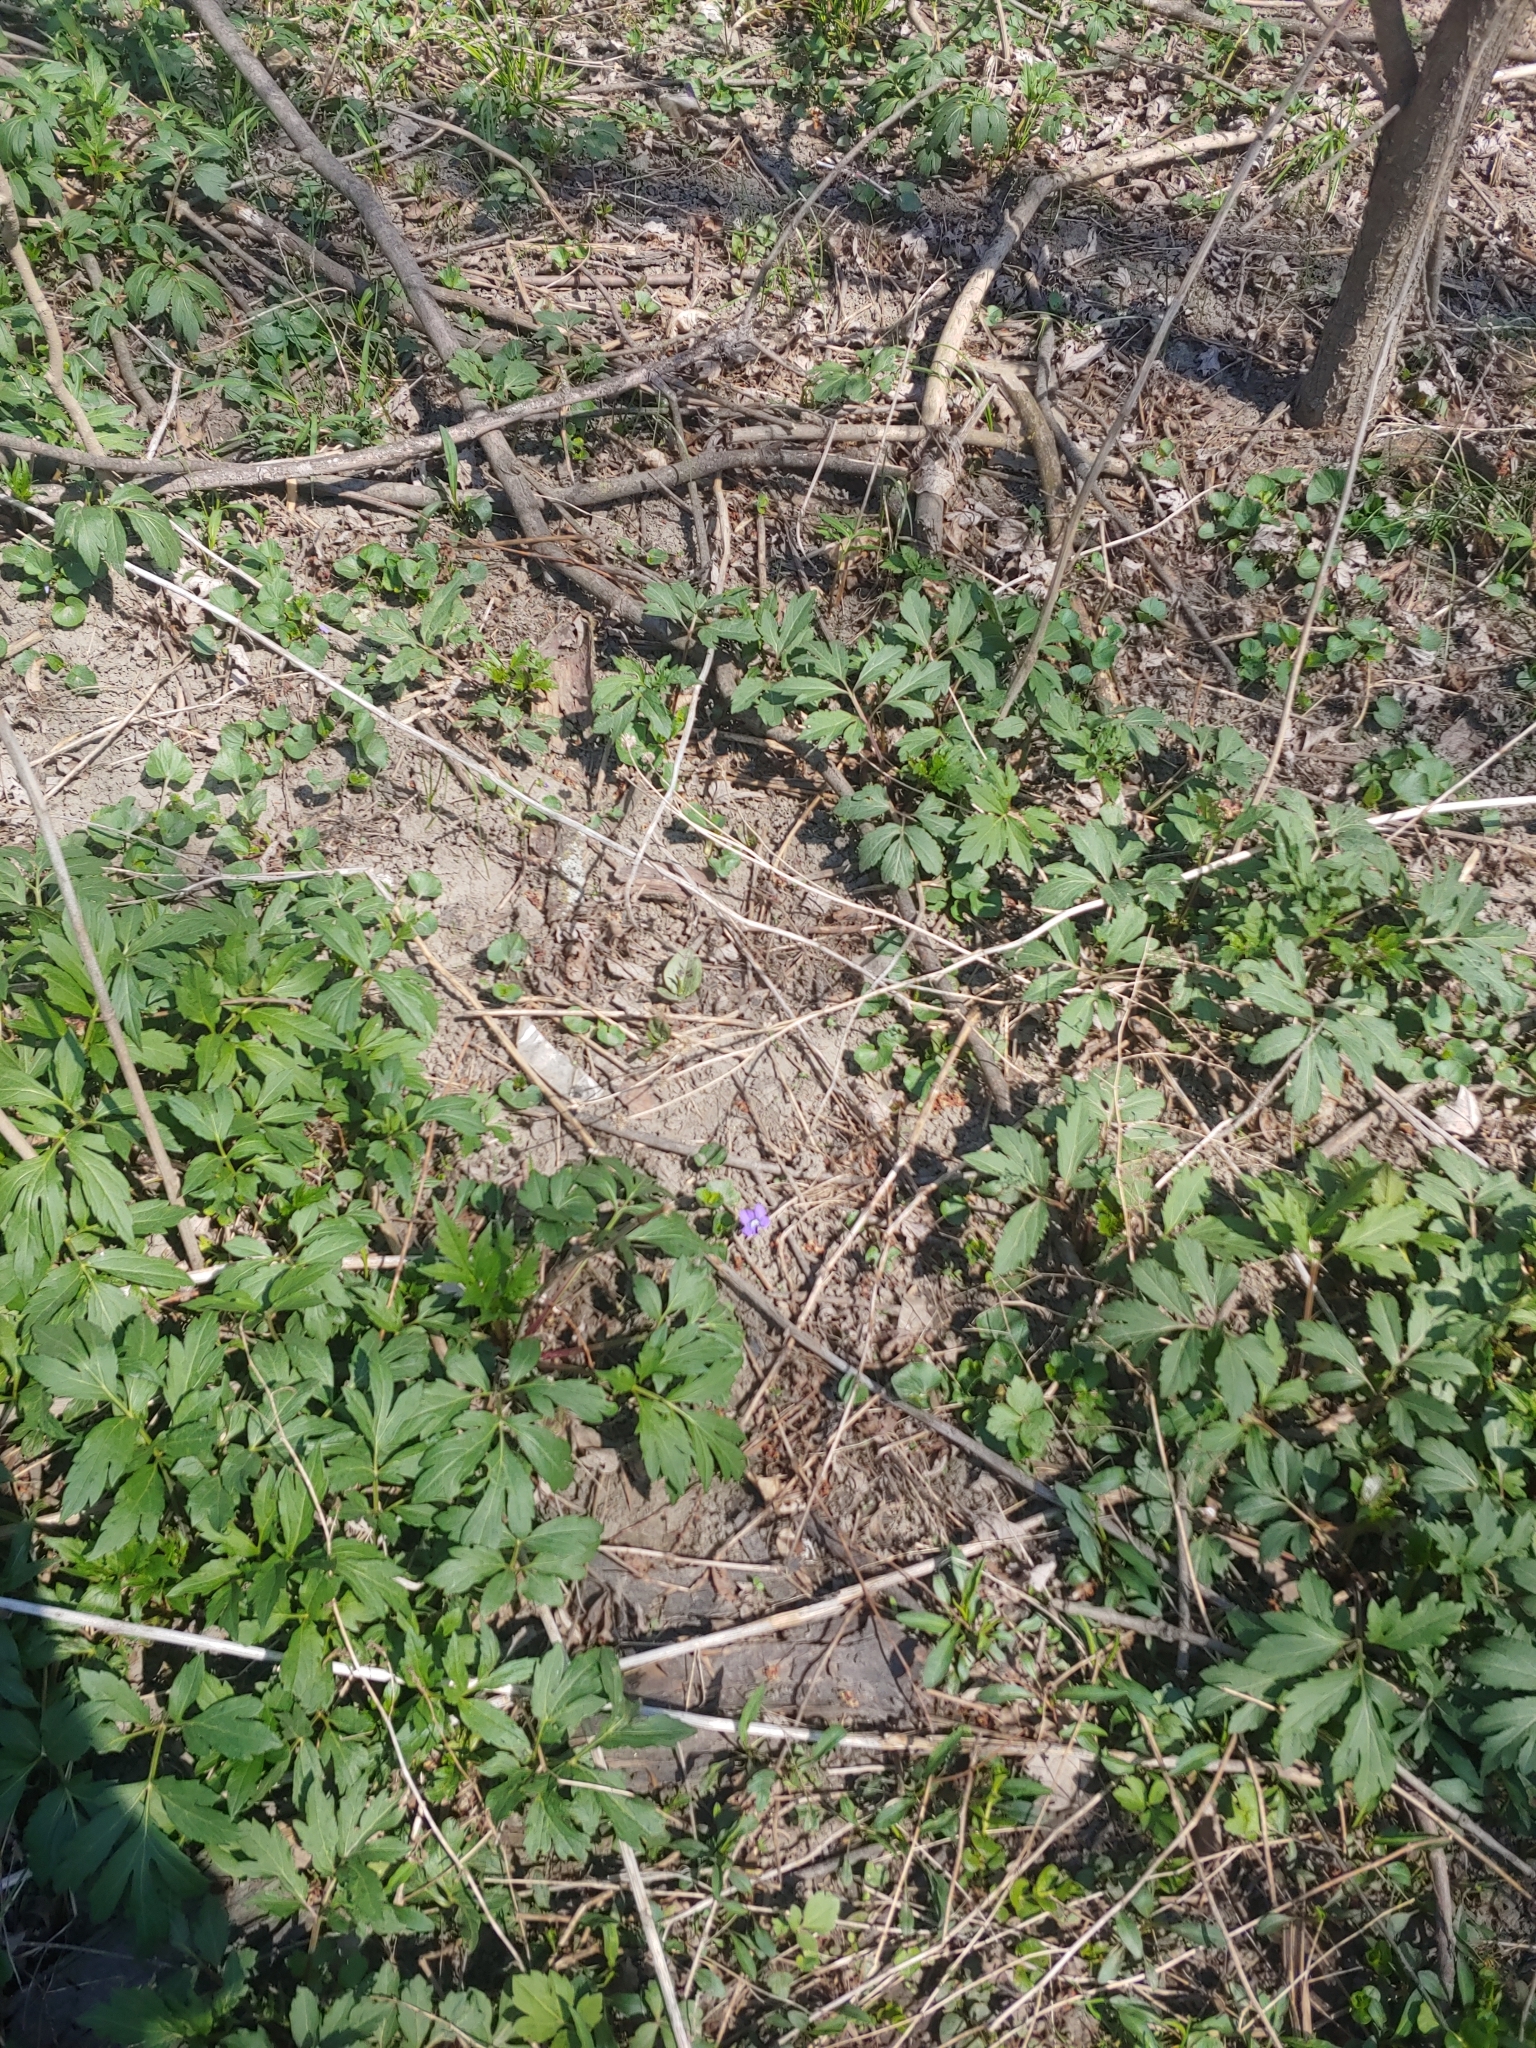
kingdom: Plantae
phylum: Tracheophyta
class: Magnoliopsida
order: Malpighiales
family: Violaceae
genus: Viola
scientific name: Viola sororia
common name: Dooryard violet
